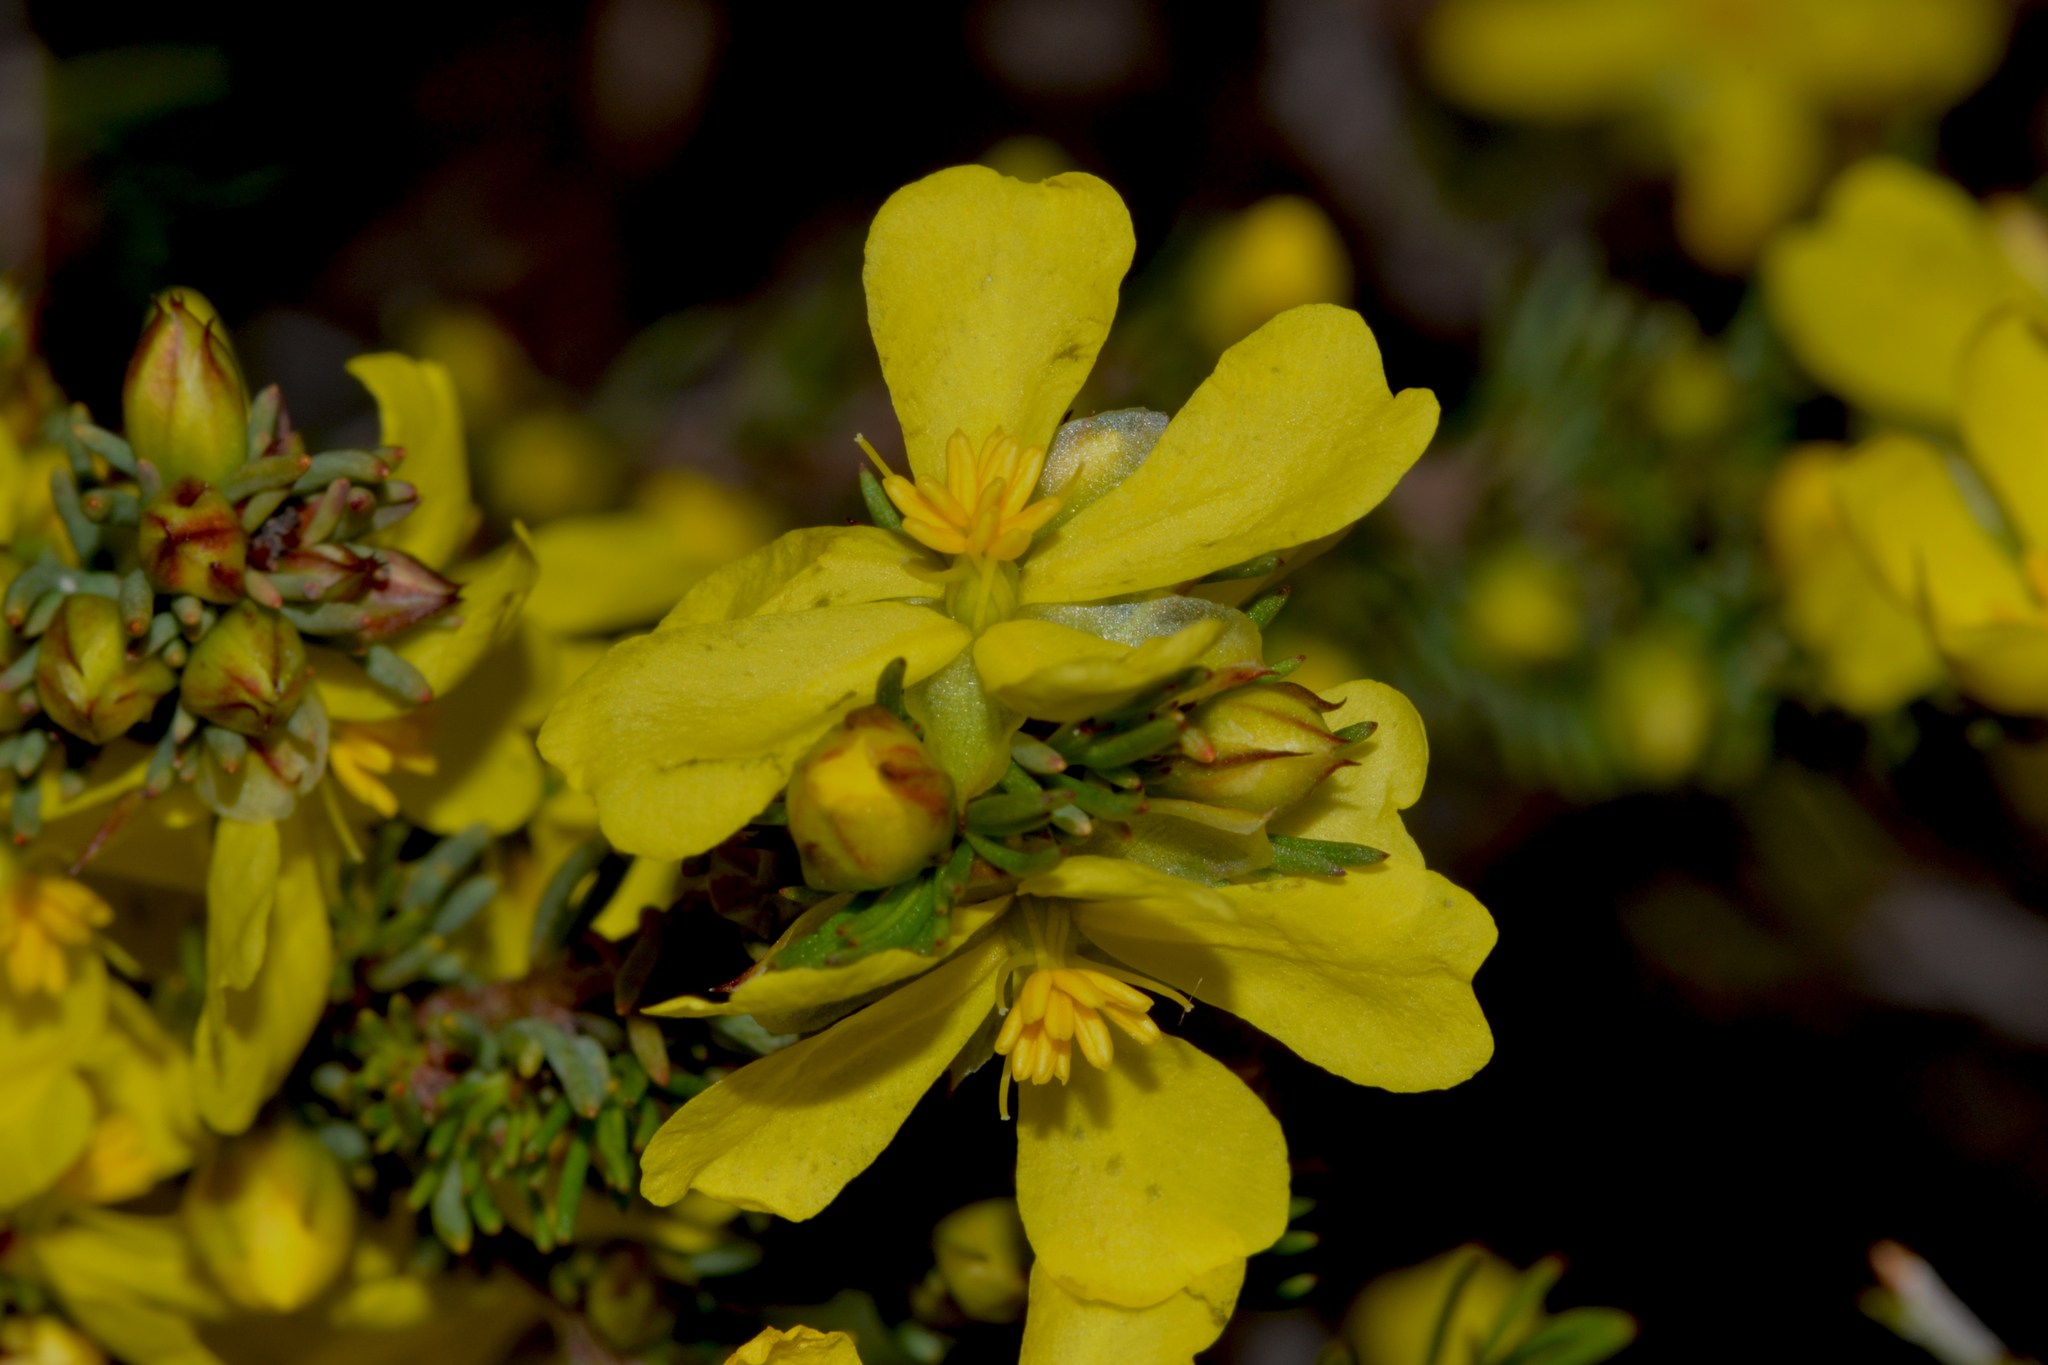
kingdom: Plantae
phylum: Tracheophyta
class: Magnoliopsida
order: Dilleniales
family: Dilleniaceae
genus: Hibbertia
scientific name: Hibbertia hibbertioides
